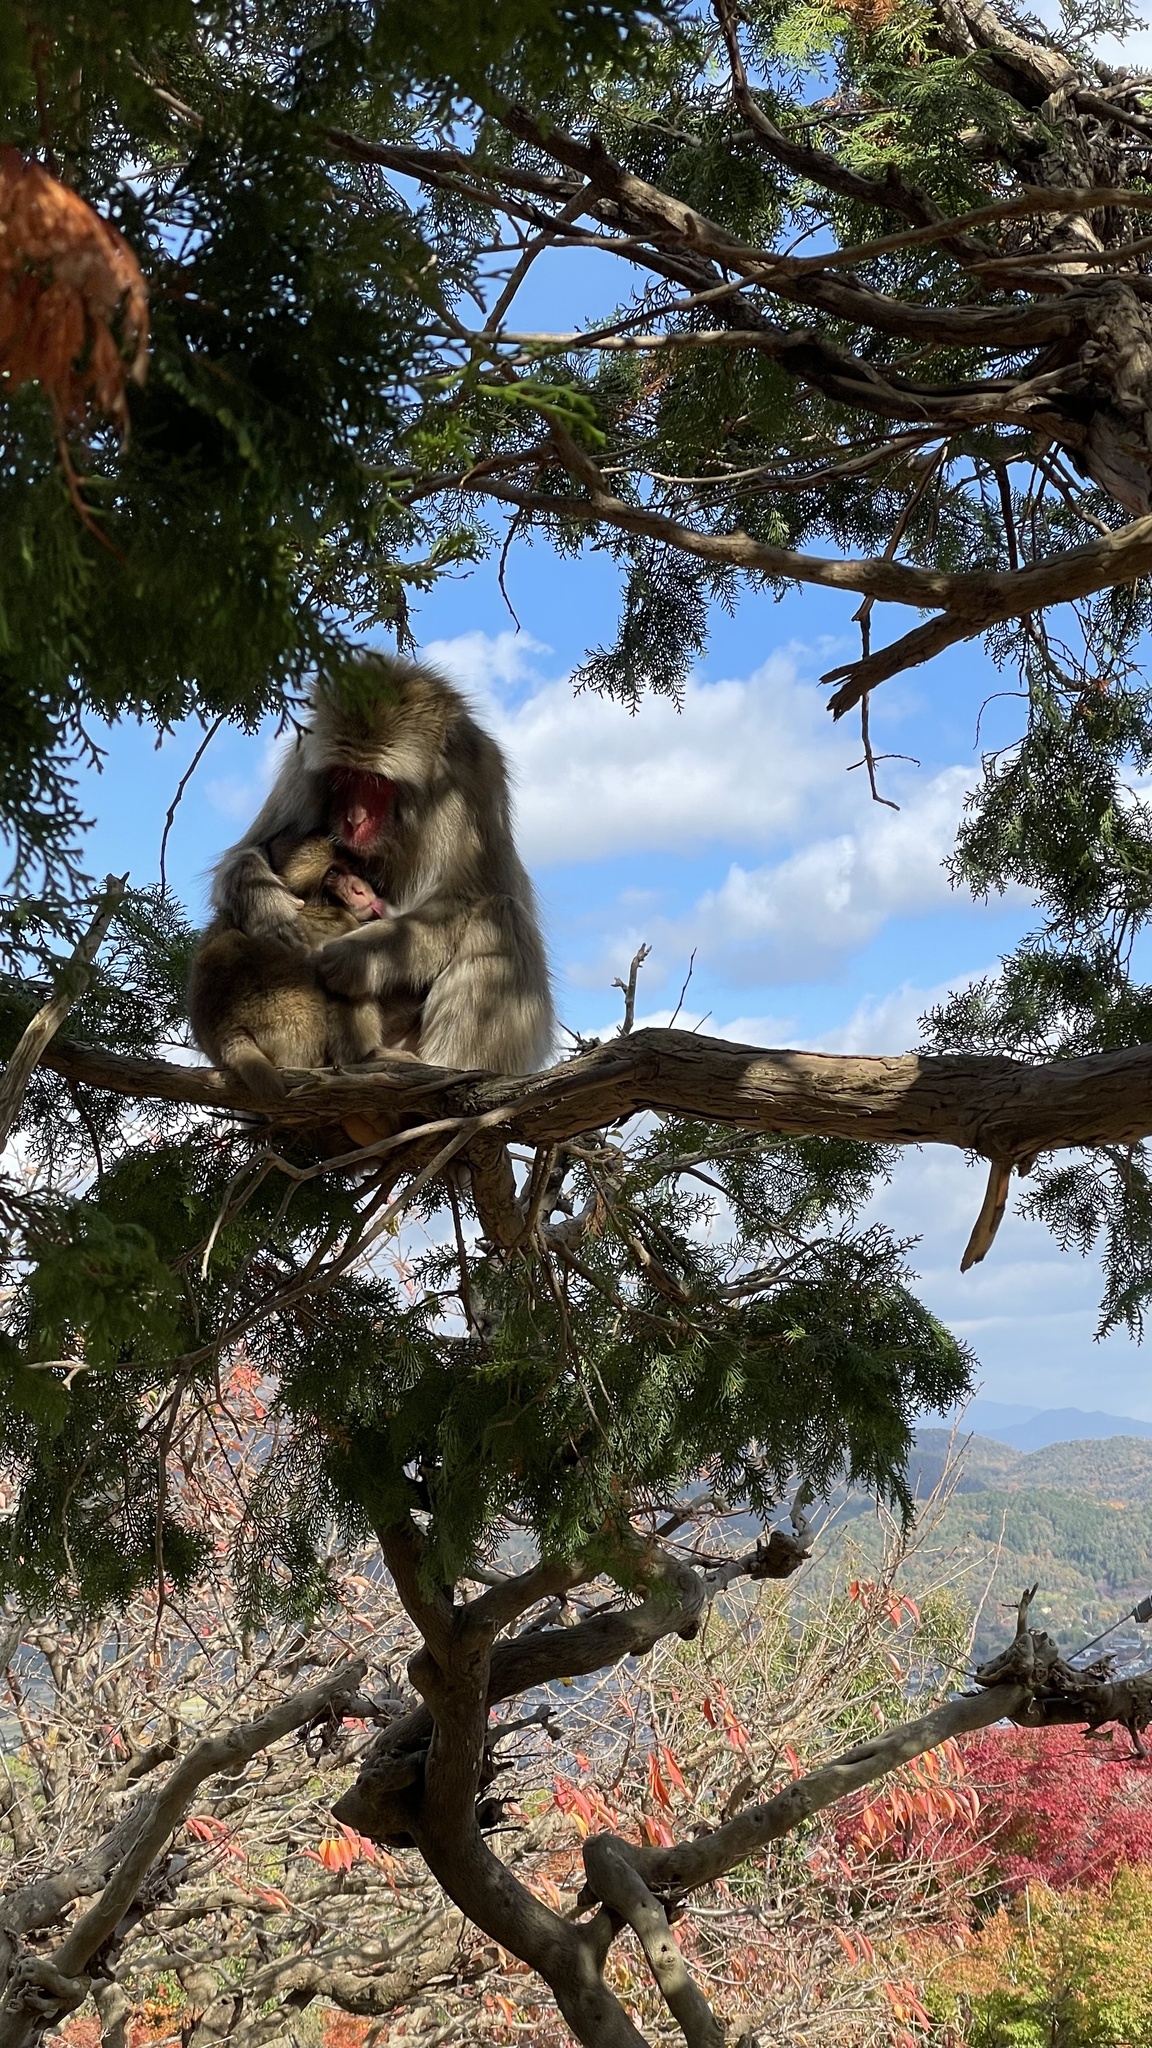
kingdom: Animalia
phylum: Chordata
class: Mammalia
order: Primates
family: Cercopithecidae
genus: Macaca
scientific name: Macaca fuscata
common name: Japanese macaque
